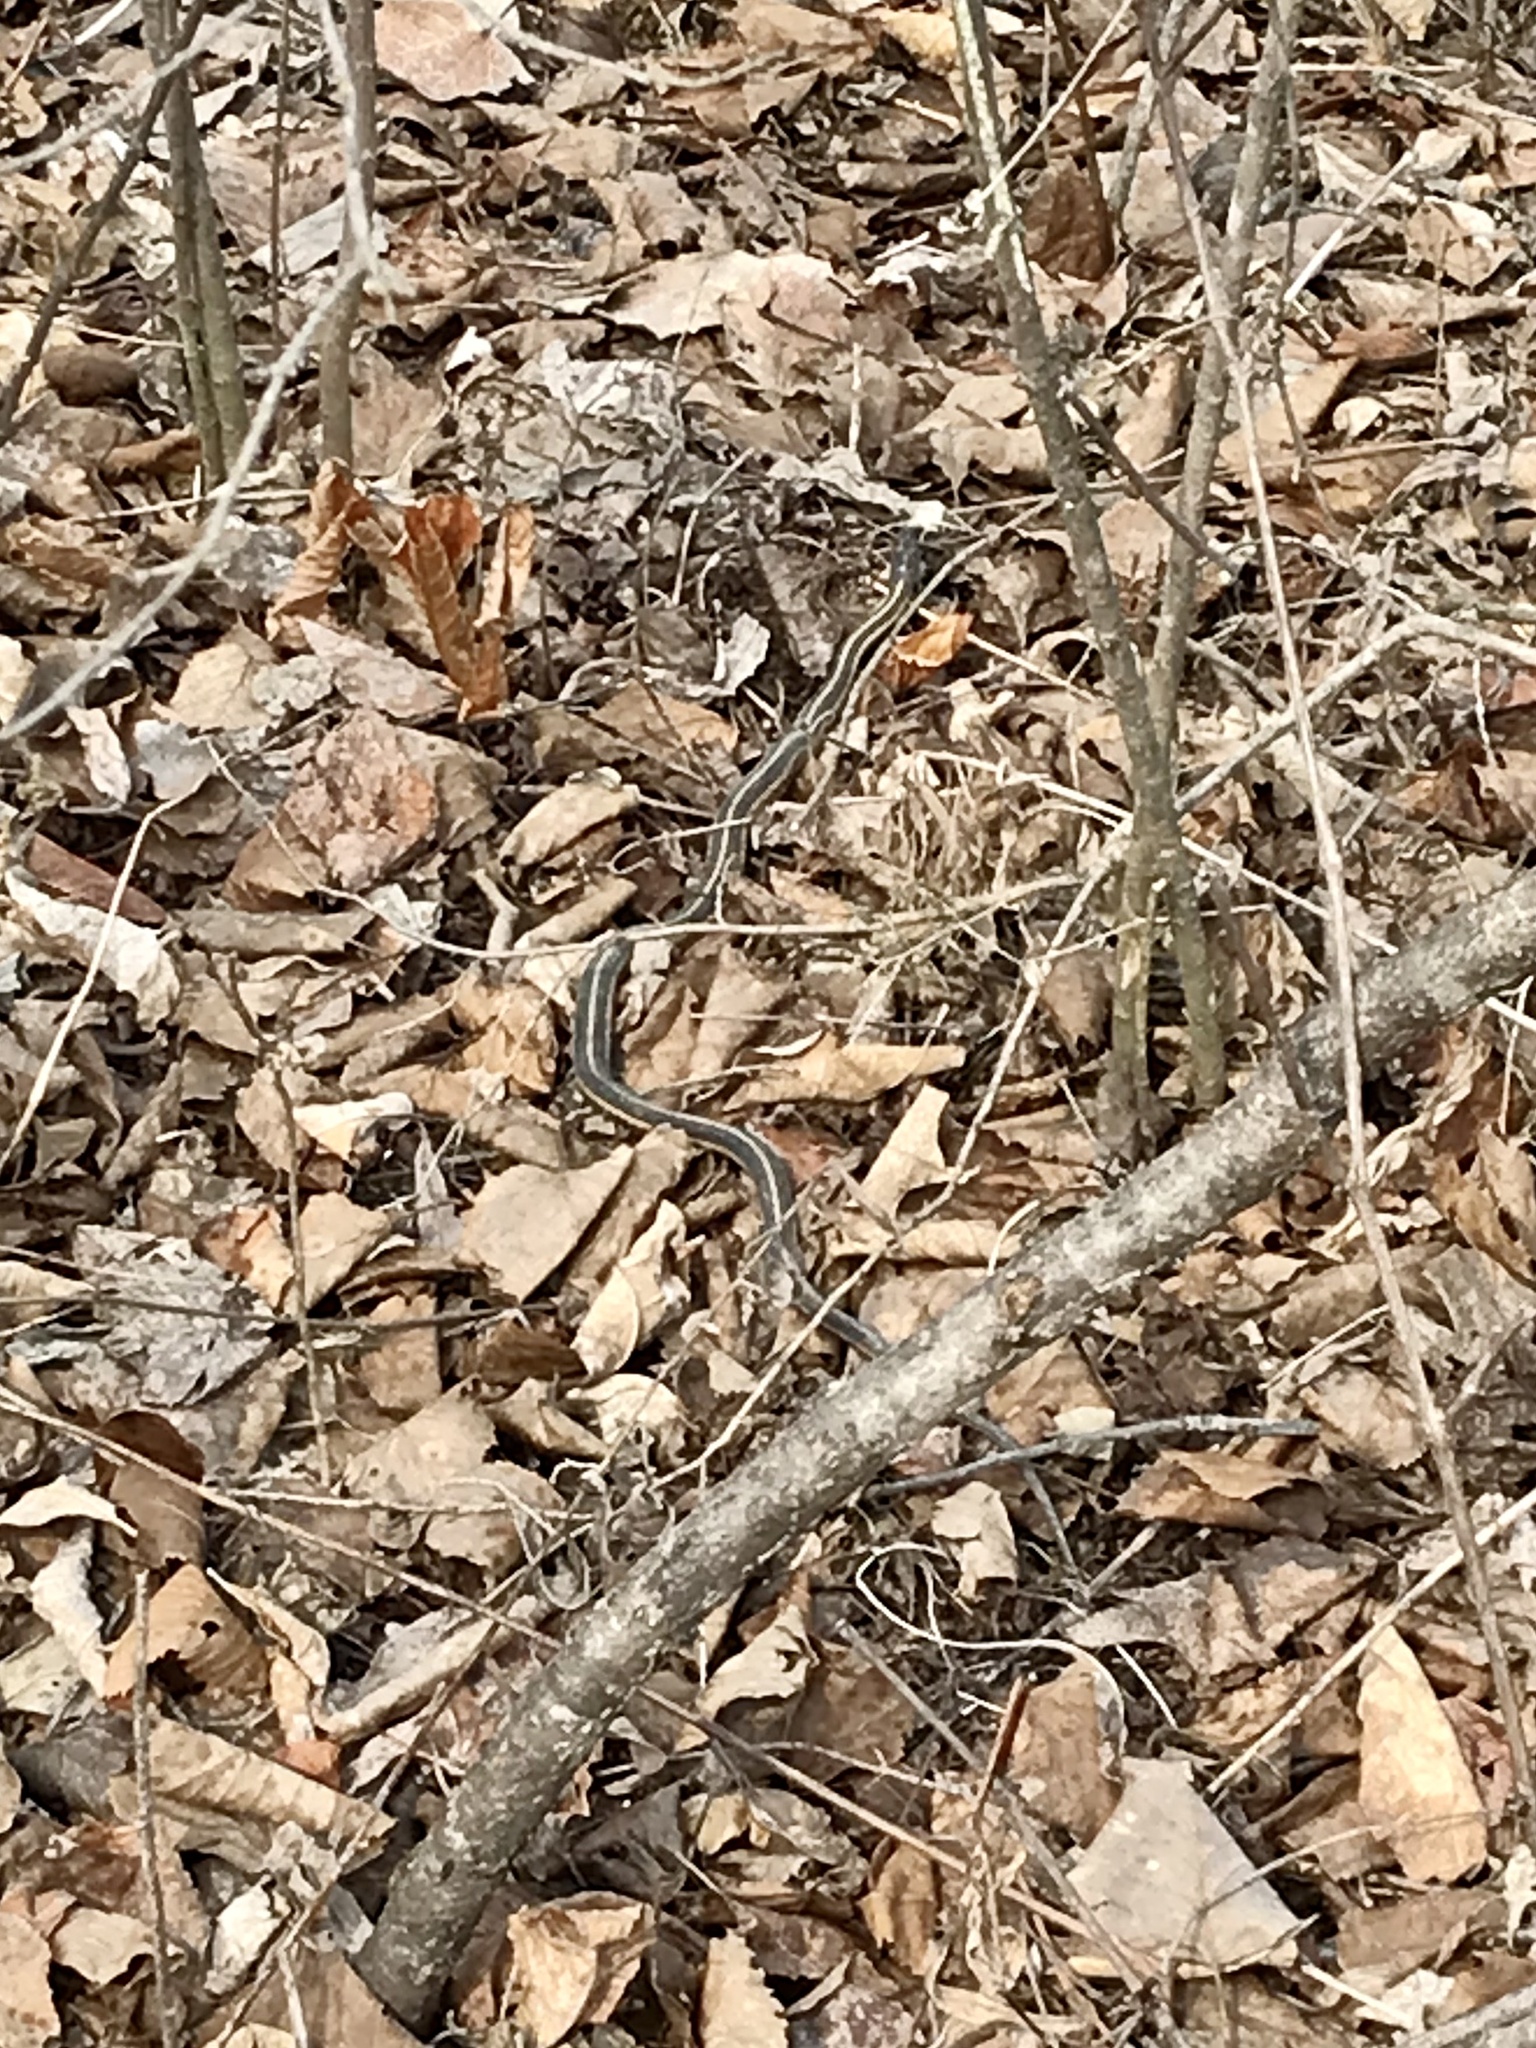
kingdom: Animalia
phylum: Chordata
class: Squamata
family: Colubridae
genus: Thamnophis
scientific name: Thamnophis sirtalis
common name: Common garter snake
